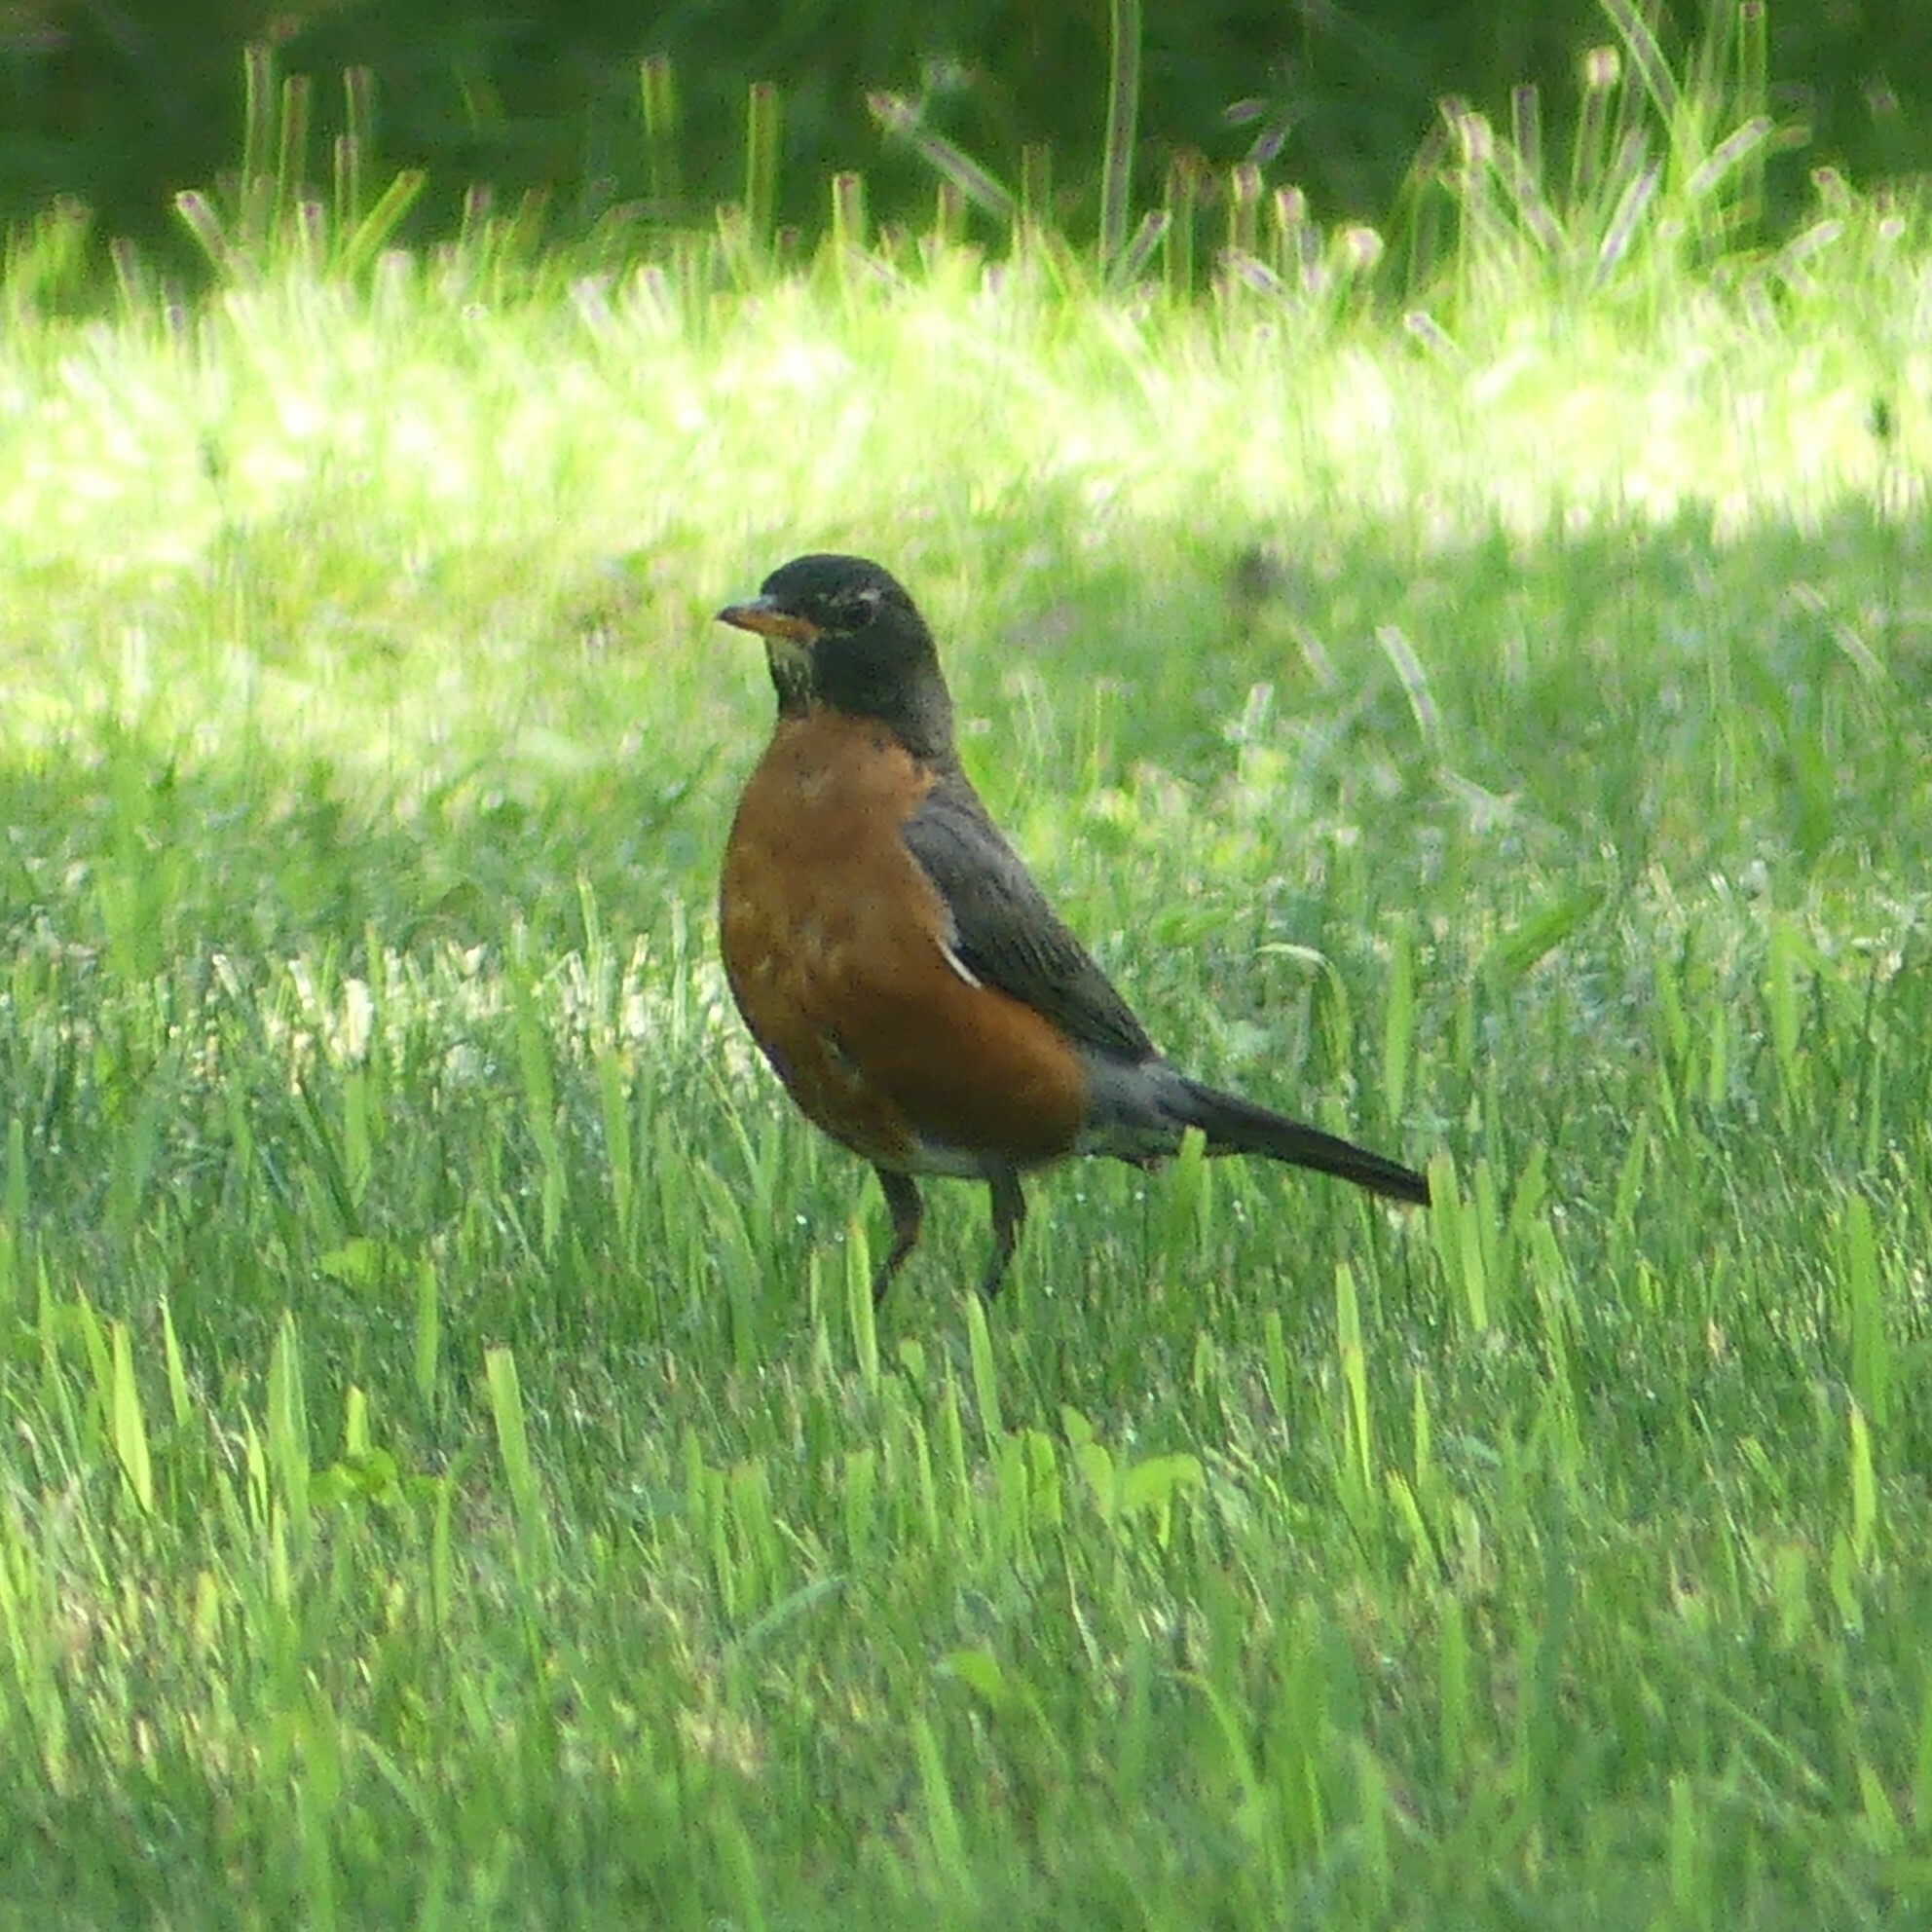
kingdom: Animalia
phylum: Chordata
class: Aves
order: Passeriformes
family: Turdidae
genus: Turdus
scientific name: Turdus migratorius
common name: American robin
